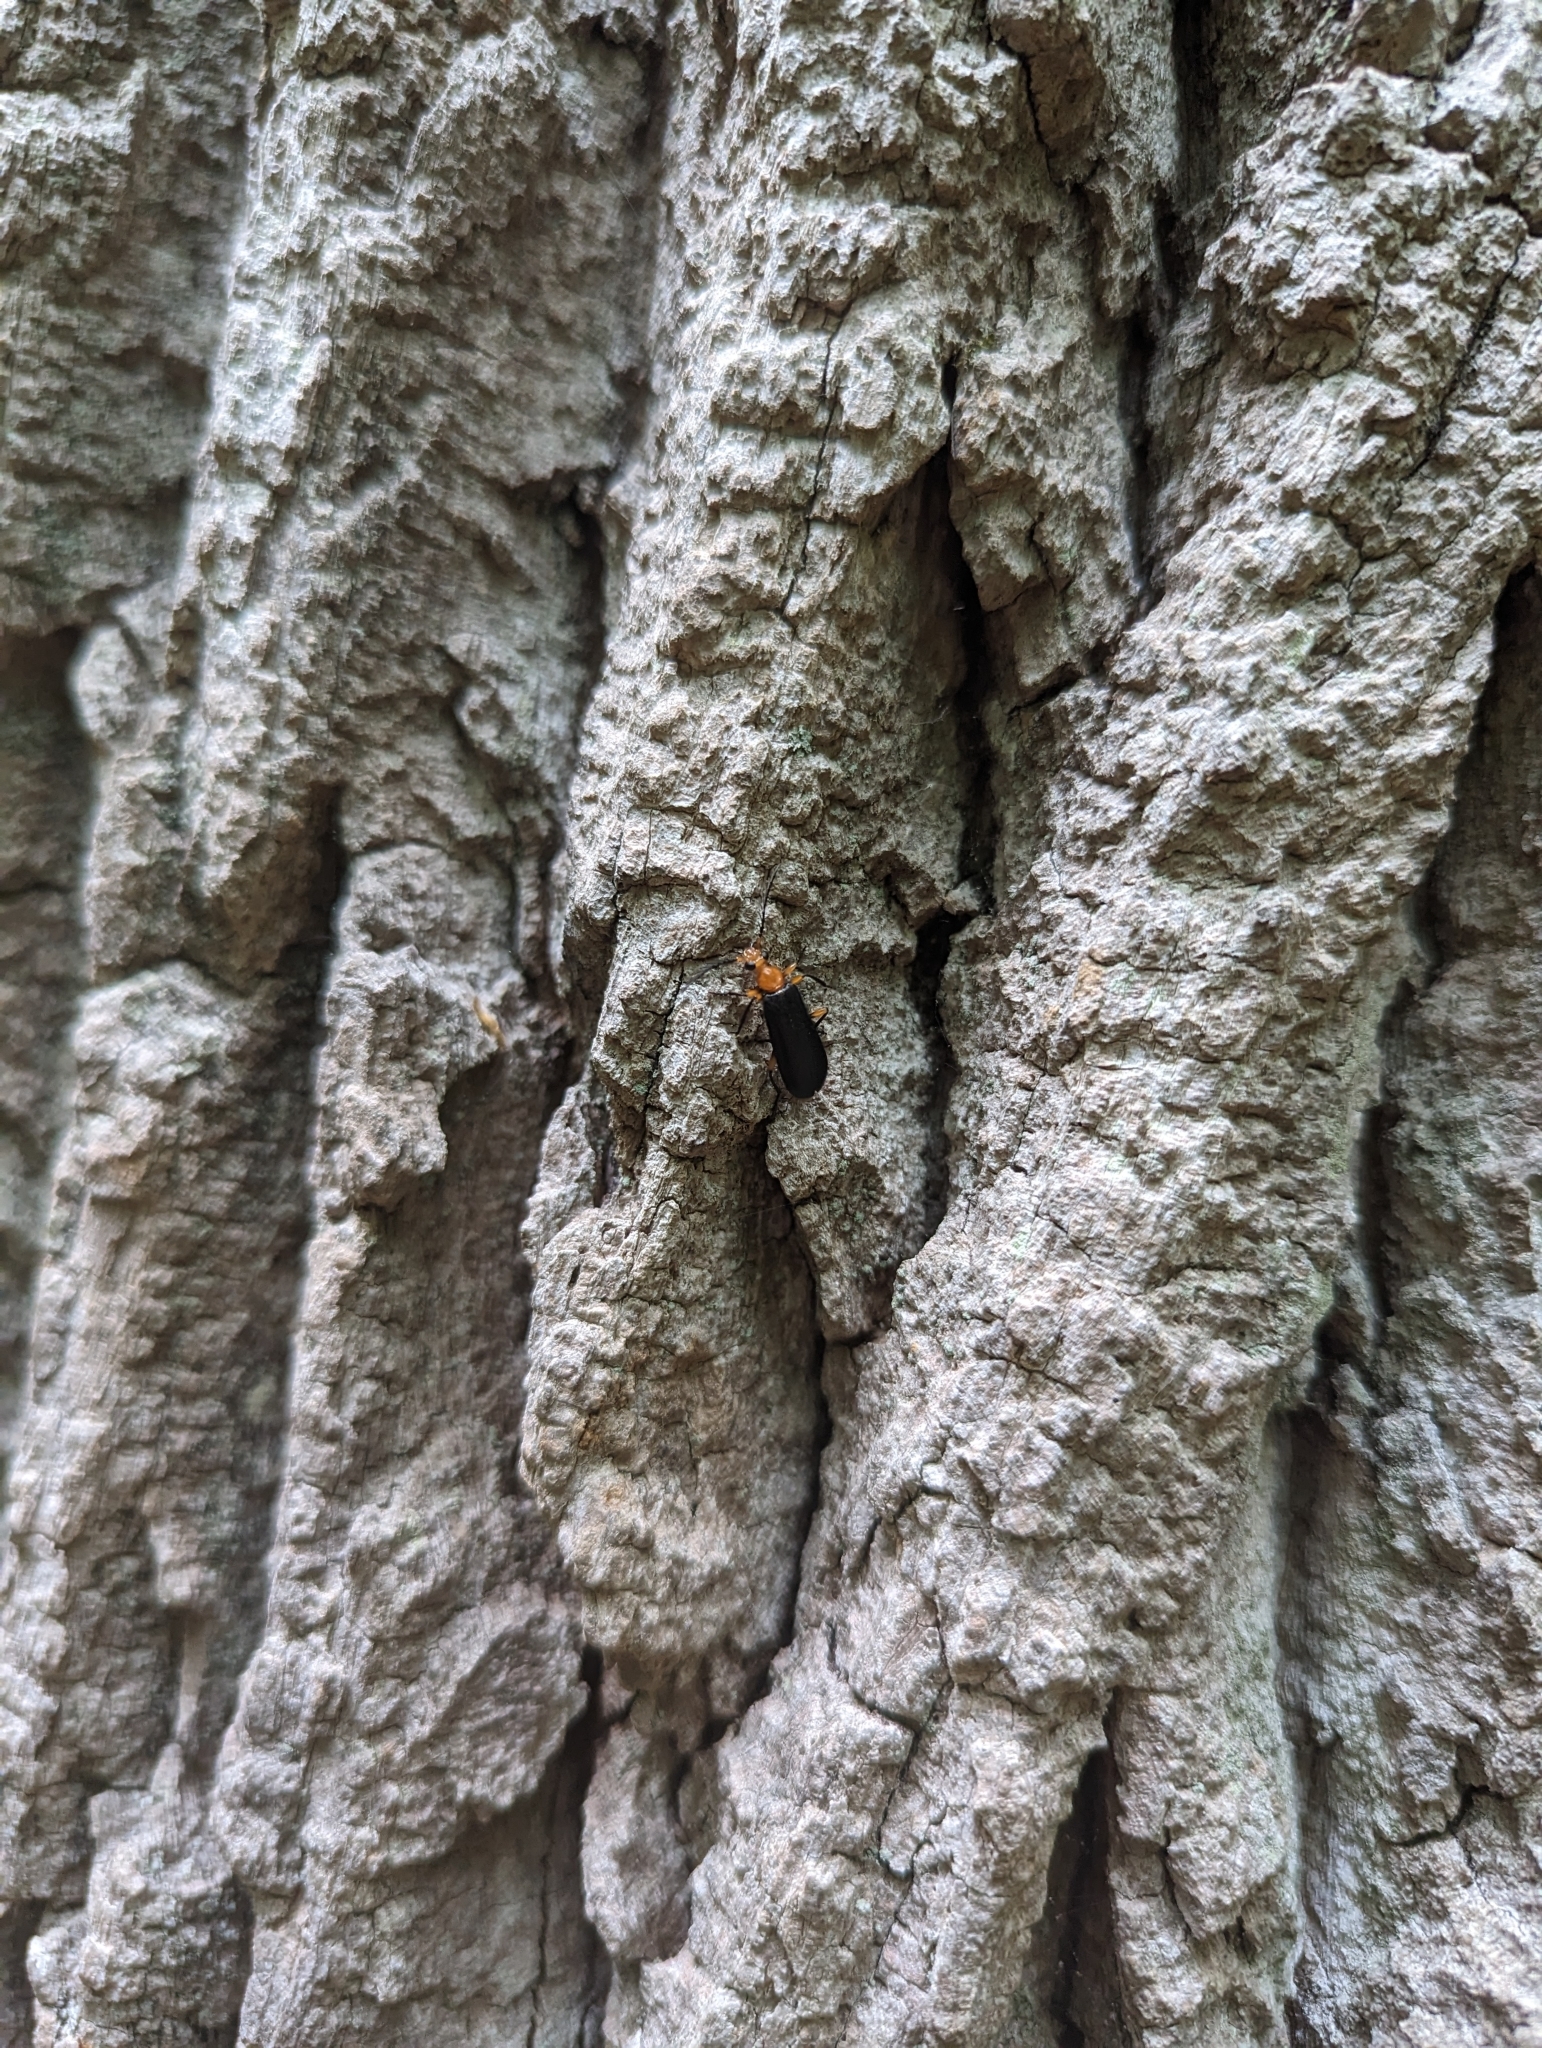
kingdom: Animalia
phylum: Arthropoda
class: Insecta
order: Coleoptera
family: Pyrochroidae
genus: Neopyrochroa
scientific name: Neopyrochroa femoralis
